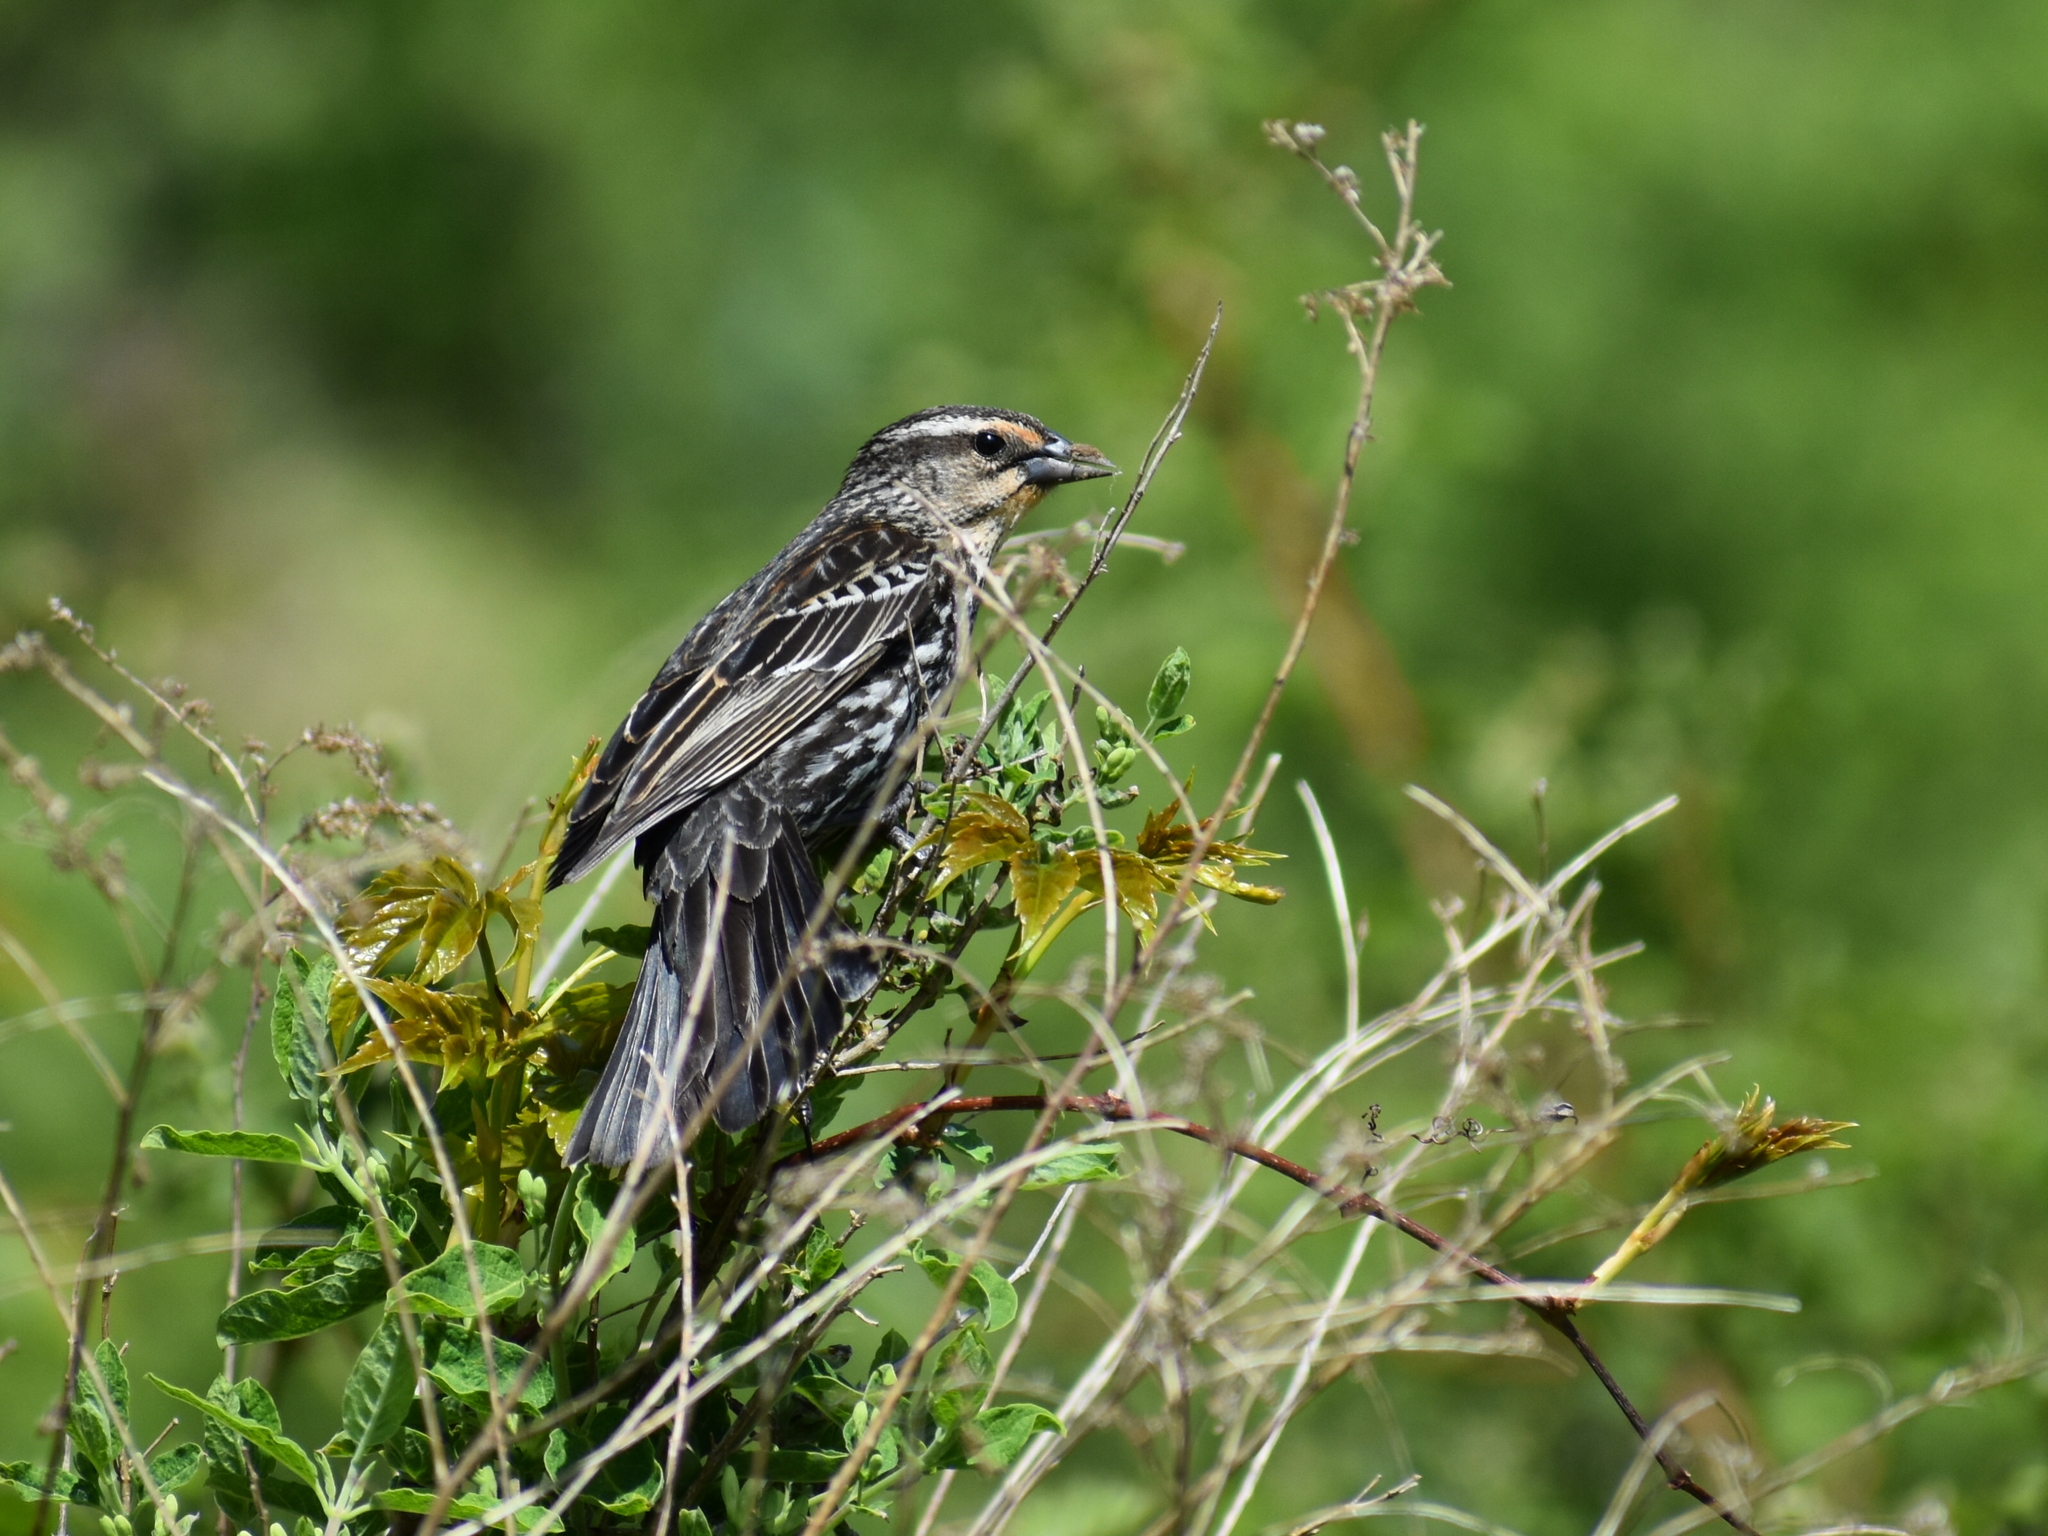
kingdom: Animalia
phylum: Chordata
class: Aves
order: Passeriformes
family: Icteridae
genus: Agelaius
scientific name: Agelaius phoeniceus
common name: Red-winged blackbird
